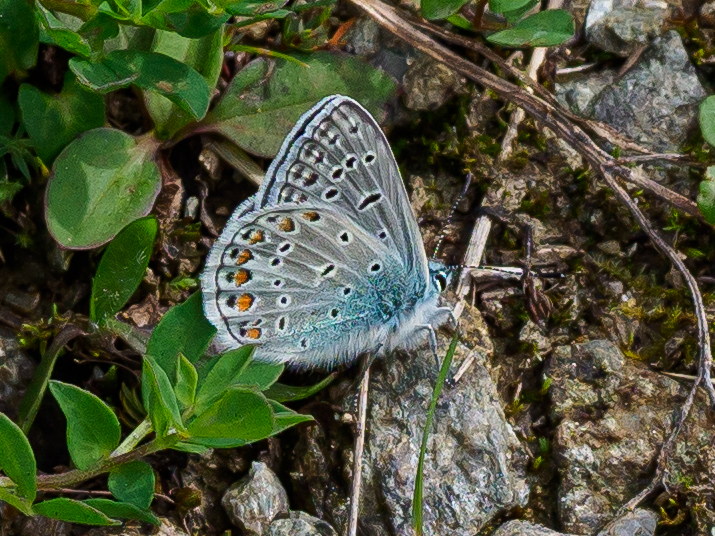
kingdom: Animalia
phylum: Arthropoda
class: Insecta
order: Lepidoptera
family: Lycaenidae
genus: Polyommatus
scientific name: Polyommatus icarus
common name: Common blue
